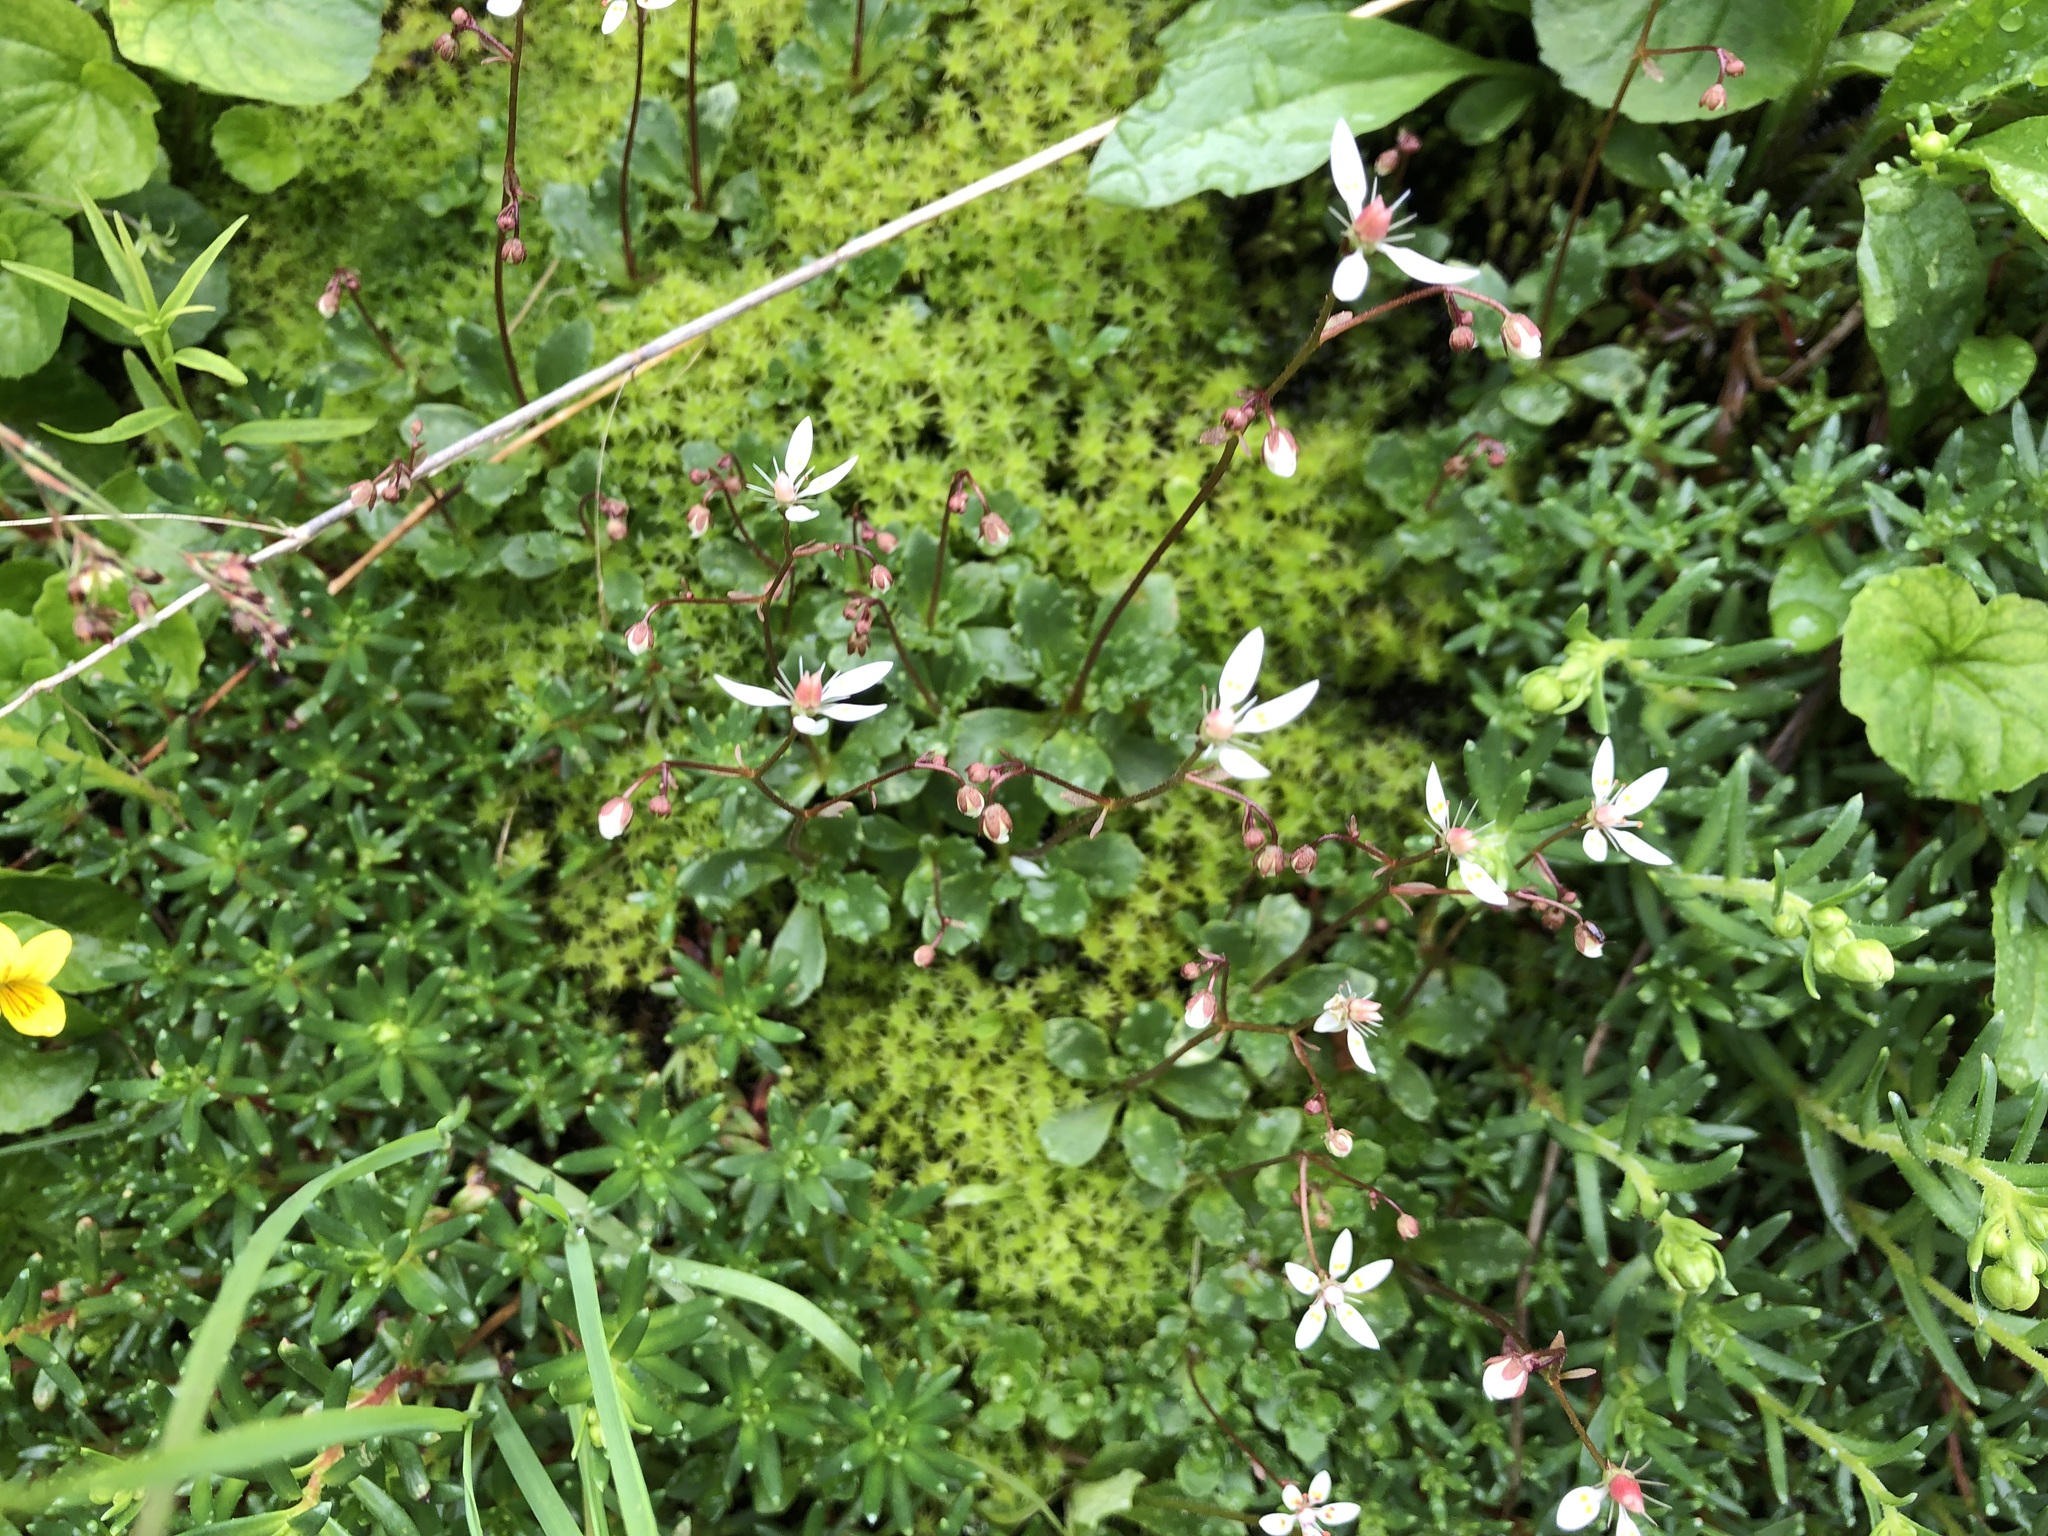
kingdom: Plantae
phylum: Tracheophyta
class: Magnoliopsida
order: Saxifragales
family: Saxifragaceae
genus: Micranthes
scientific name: Micranthes stellaris
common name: Starry saxifrage
